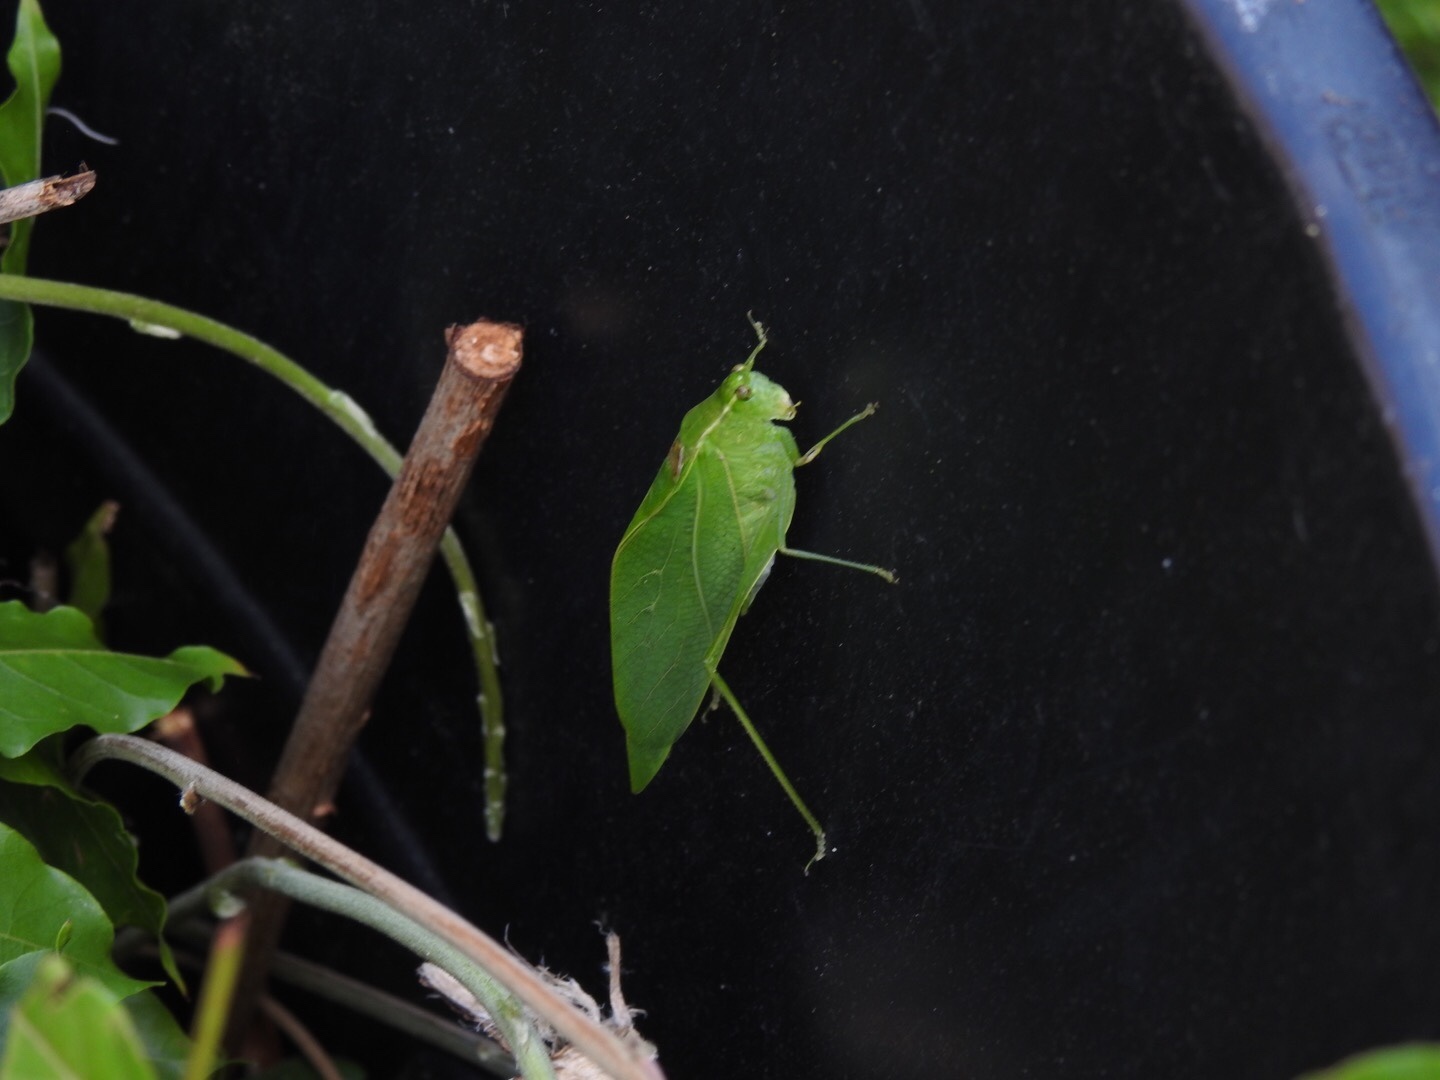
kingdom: Animalia
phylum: Arthropoda
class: Insecta
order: Orthoptera
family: Tettigoniidae
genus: Microcentrum
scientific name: Microcentrum retinerve
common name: Angular-winged katydid
